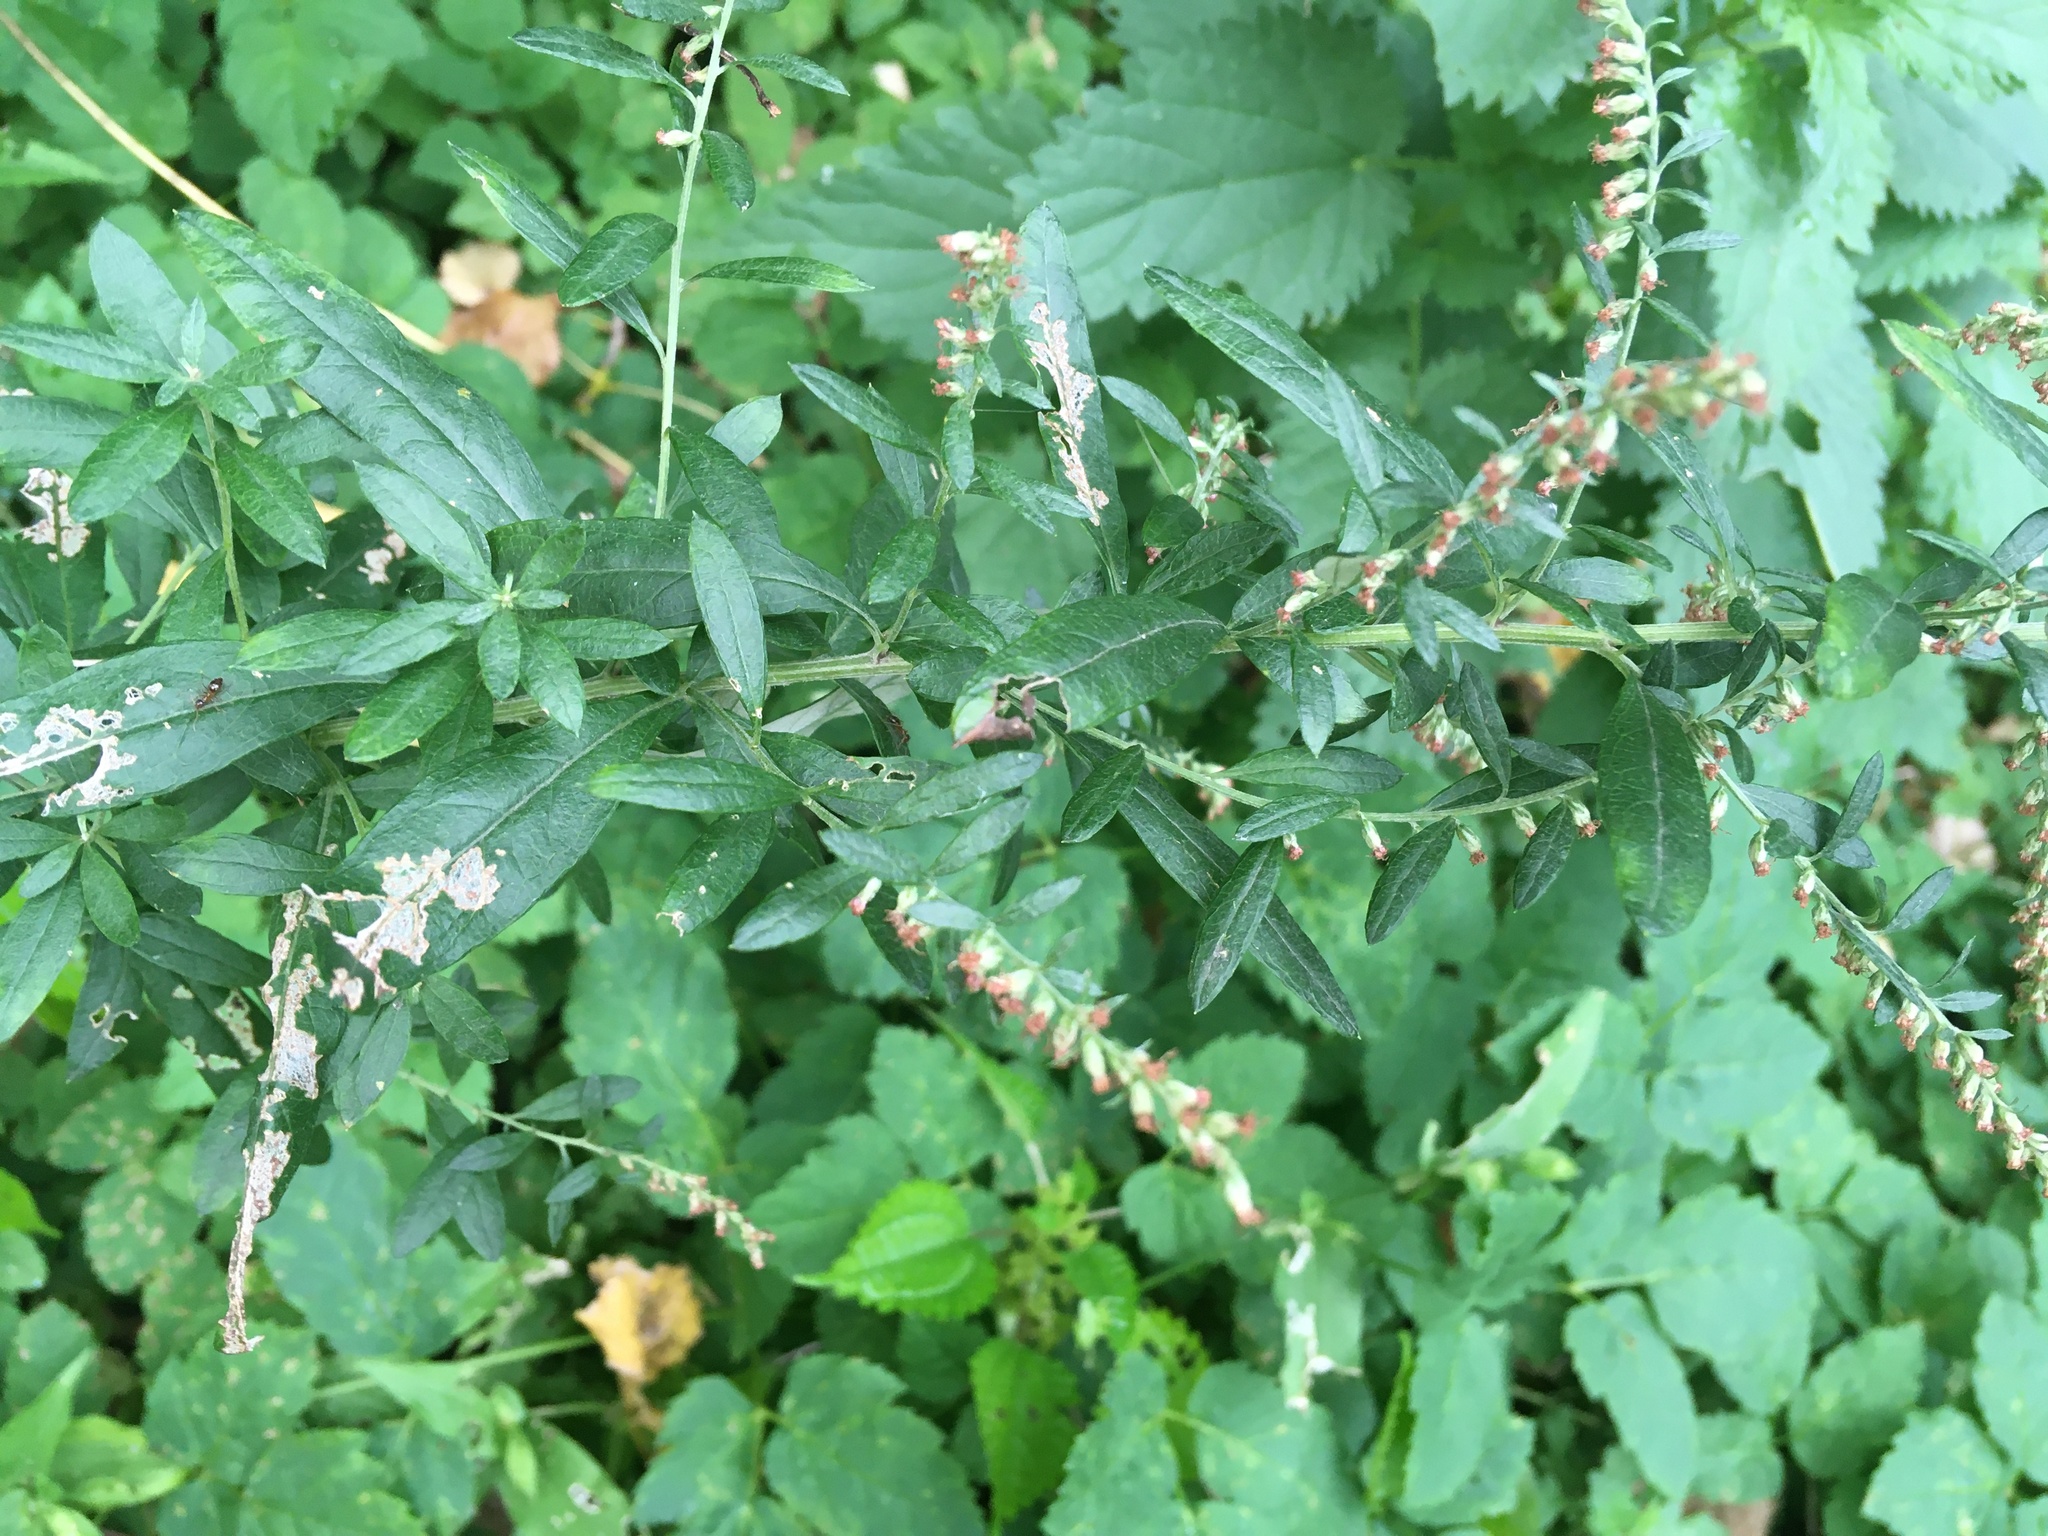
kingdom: Plantae
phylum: Tracheophyta
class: Magnoliopsida
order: Asterales
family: Asteraceae
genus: Artemisia
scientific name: Artemisia vulgaris
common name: Mugwort
